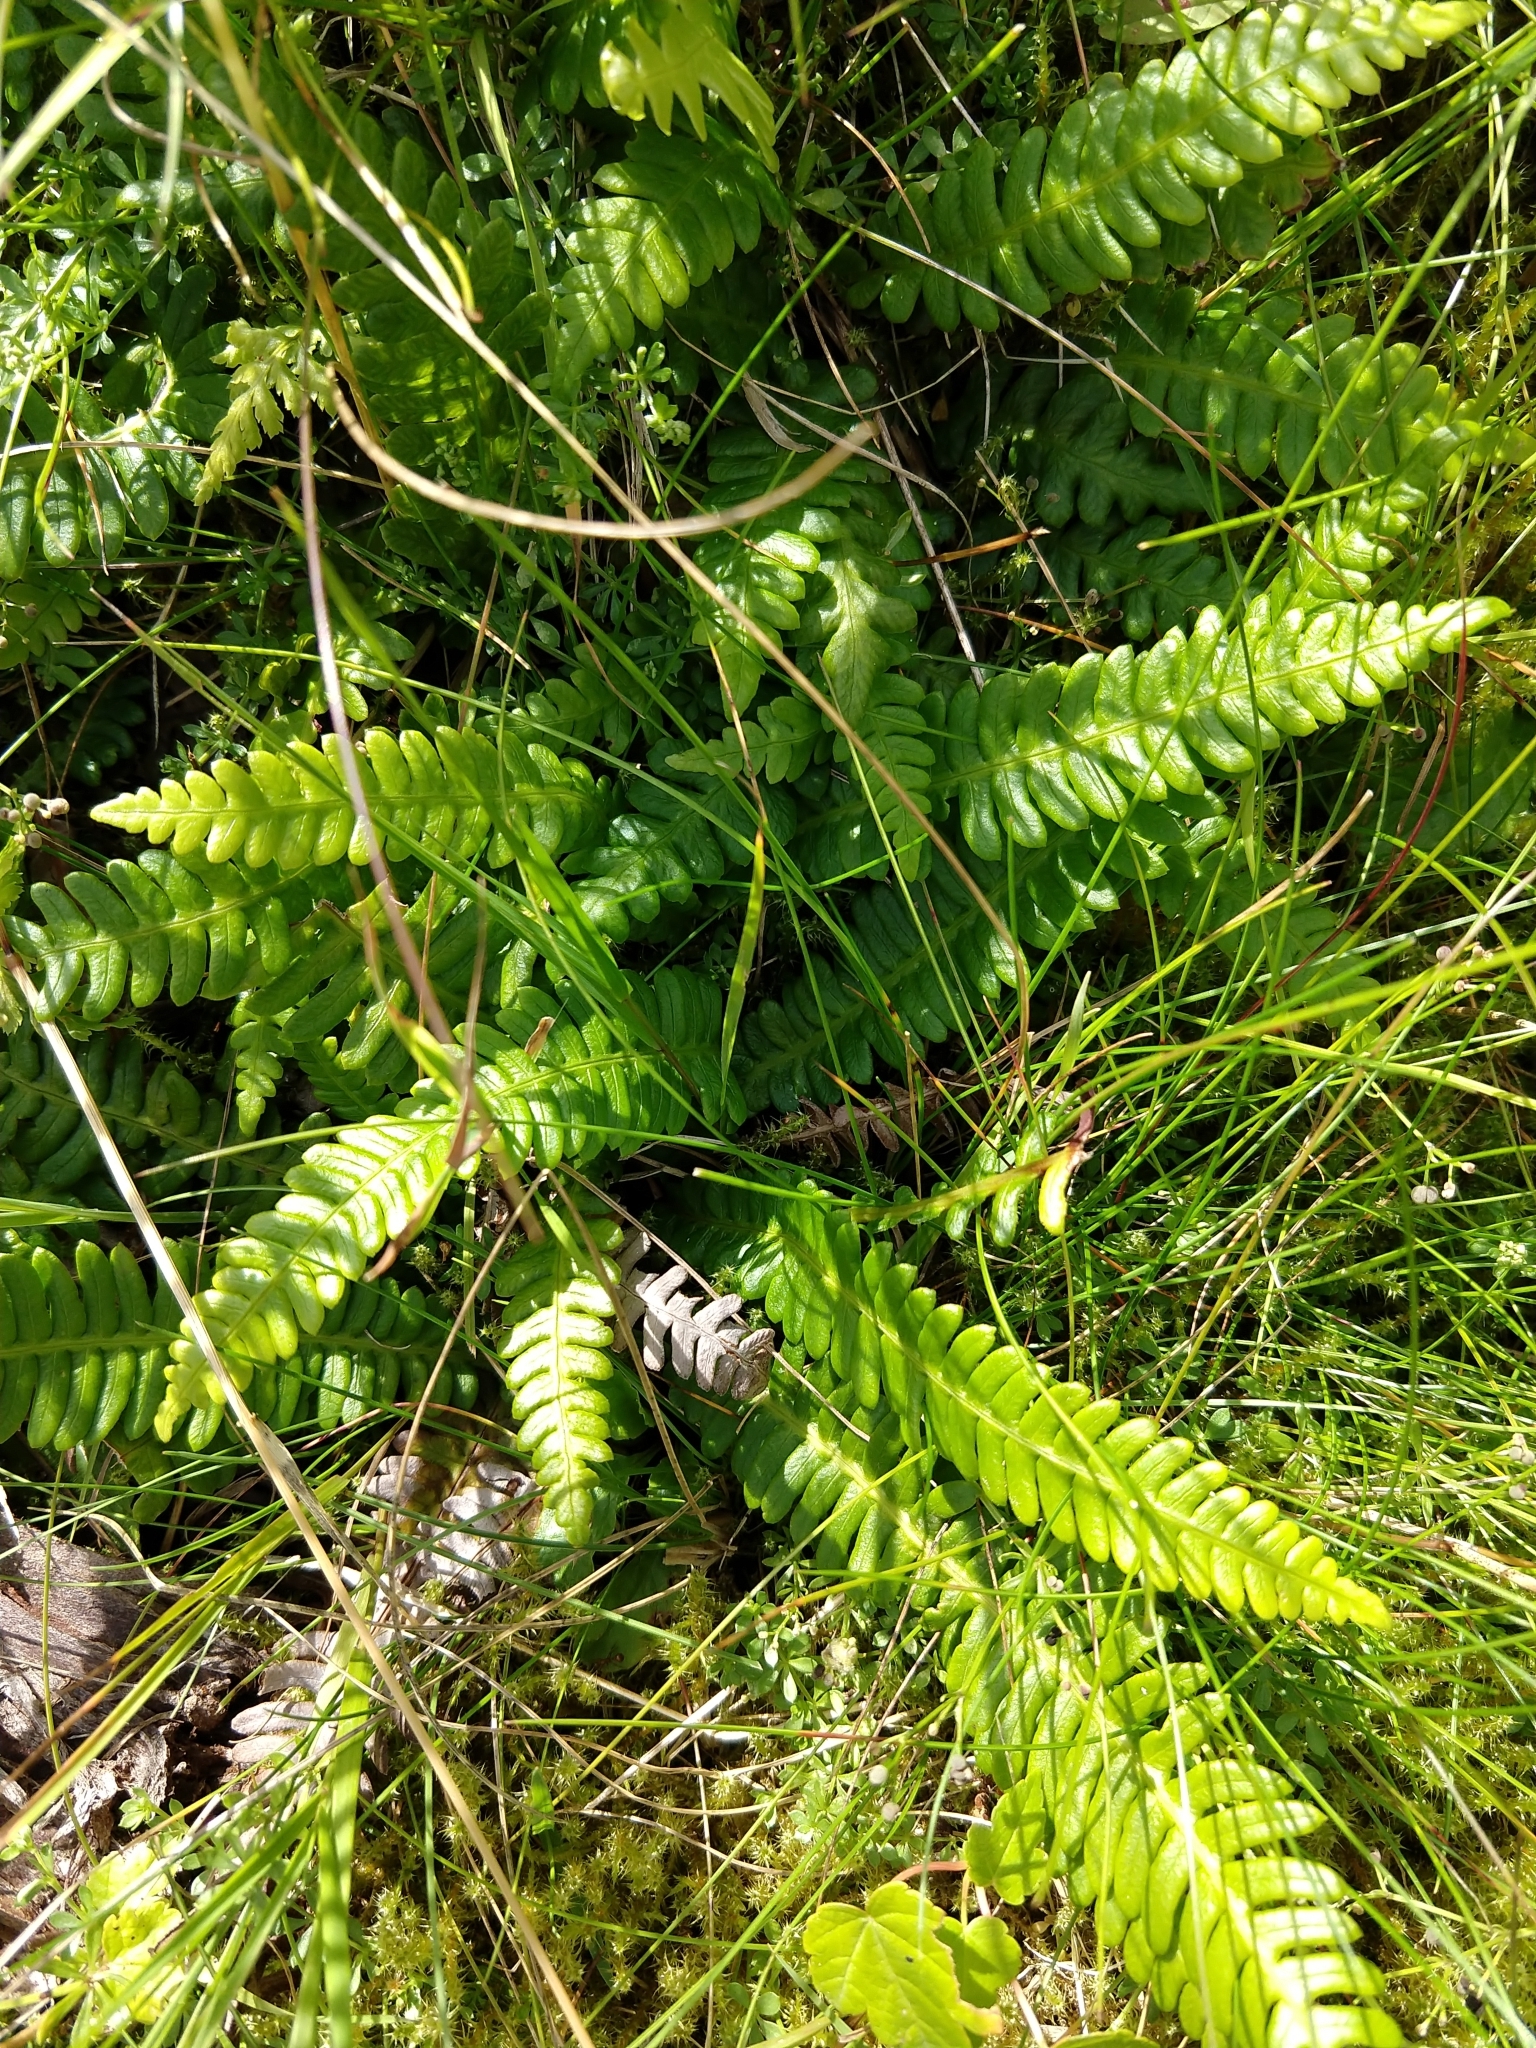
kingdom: Plantae
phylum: Tracheophyta
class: Polypodiopsida
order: Polypodiales
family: Blechnaceae
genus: Struthiopteris
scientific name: Struthiopteris spicant
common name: Deer fern
